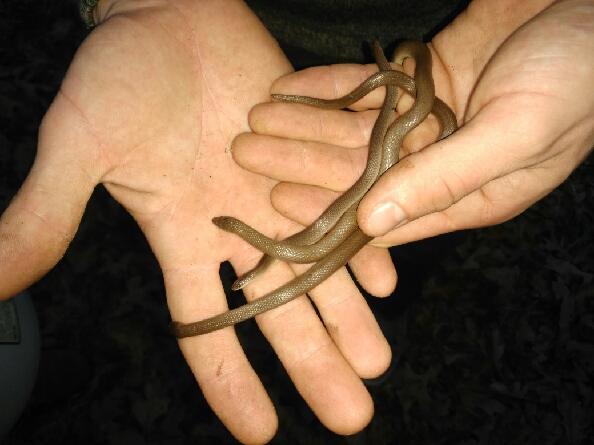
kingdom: Animalia
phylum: Chordata
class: Squamata
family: Colubridae
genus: Haldea
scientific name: Haldea striatula
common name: Rough earth snake
